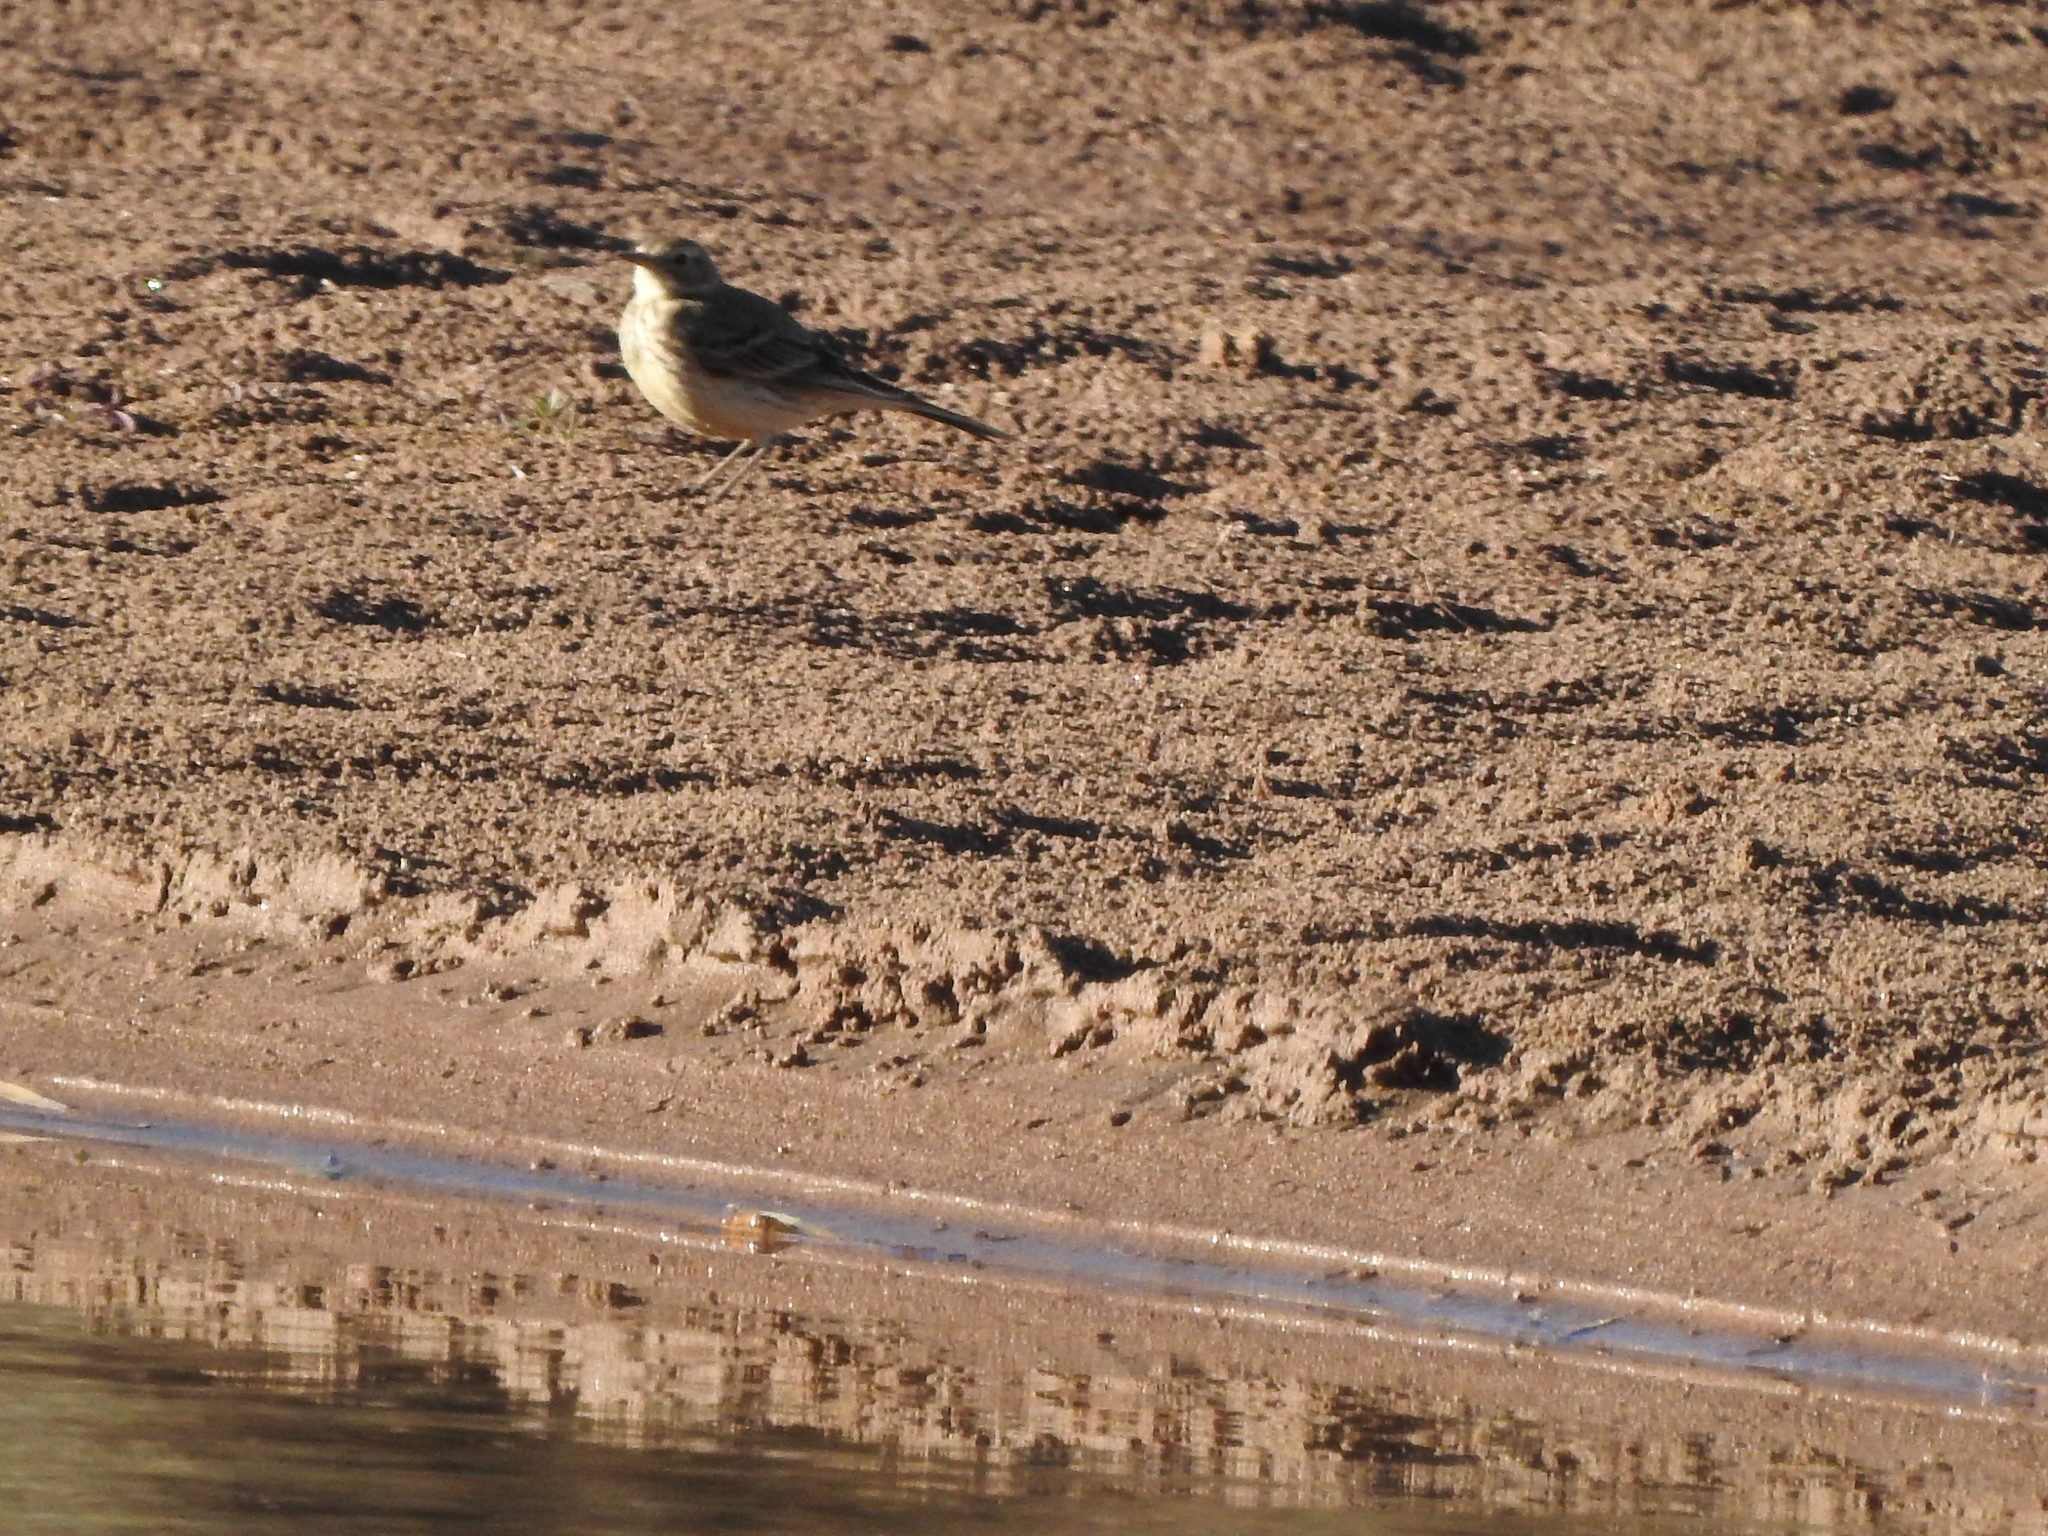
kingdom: Animalia
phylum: Chordata
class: Aves
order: Passeriformes
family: Motacillidae
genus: Anthus
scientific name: Anthus rubescens
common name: Buff-bellied pipit
